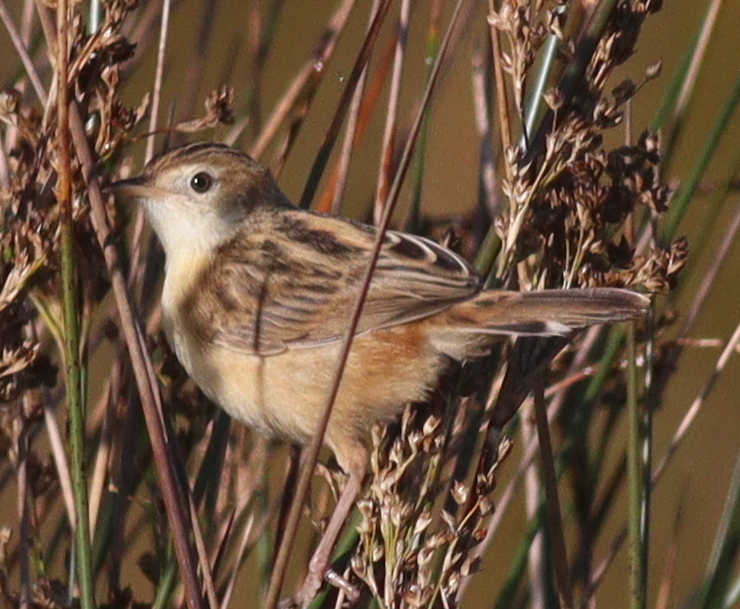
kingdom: Animalia
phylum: Chordata
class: Aves
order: Passeriformes
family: Cisticolidae
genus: Cisticola
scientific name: Cisticola juncidis
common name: Zitting cisticola
